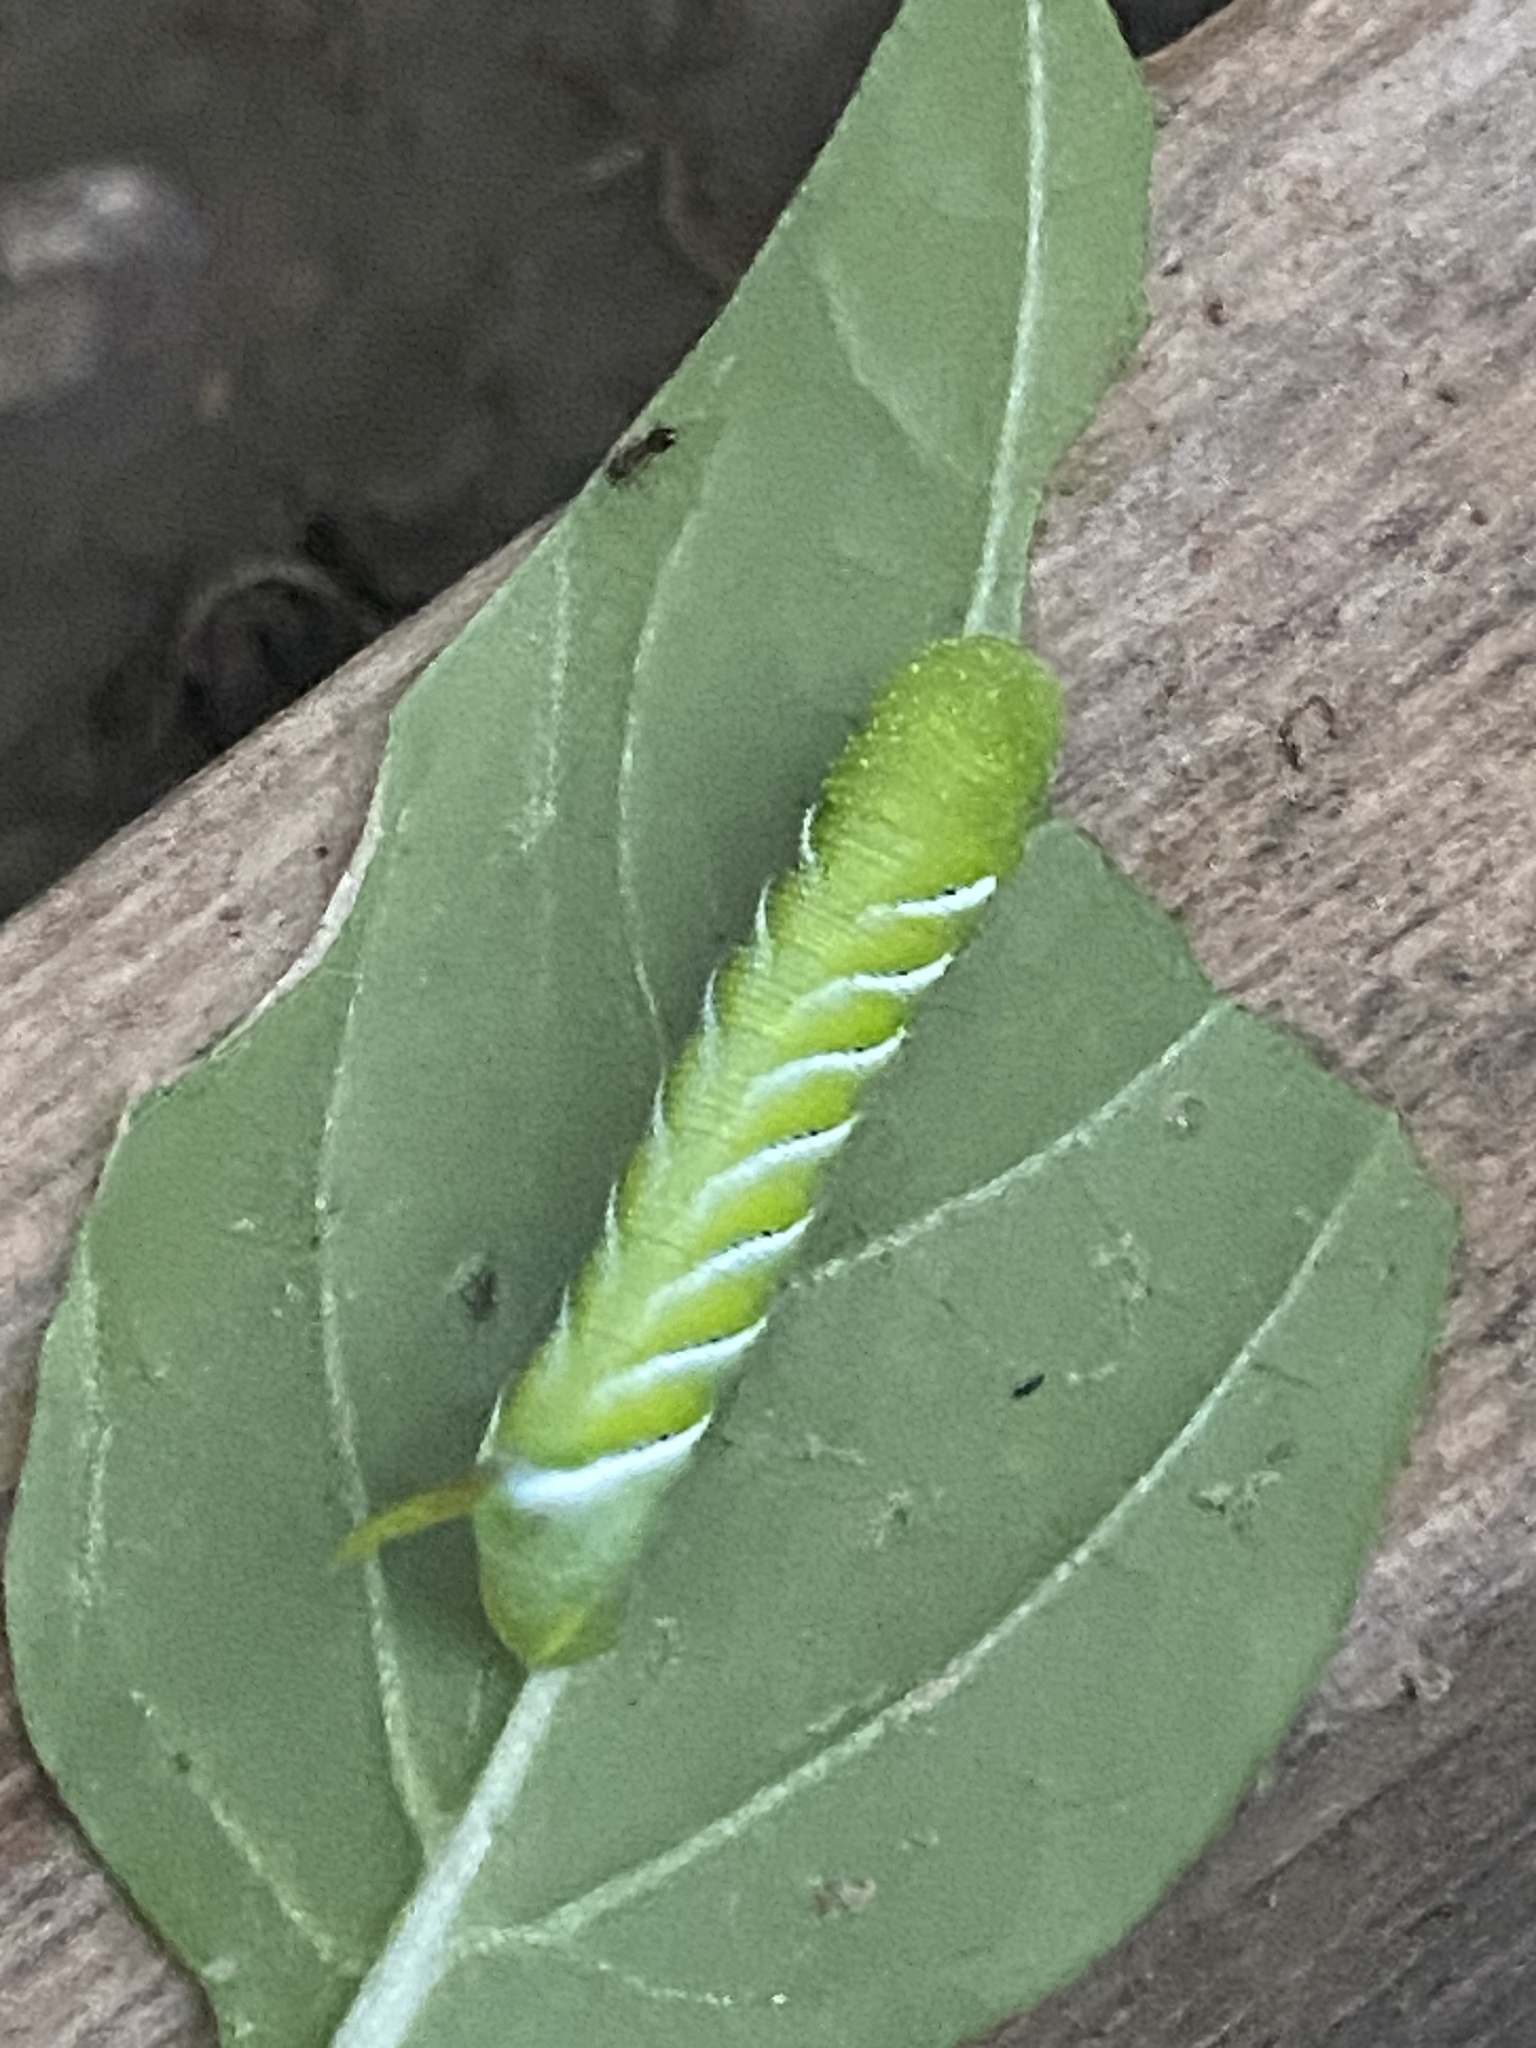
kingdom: Animalia
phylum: Arthropoda
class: Insecta
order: Lepidoptera
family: Sphingidae
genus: Manduca
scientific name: Manduca sexta
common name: Carolina sphinx
